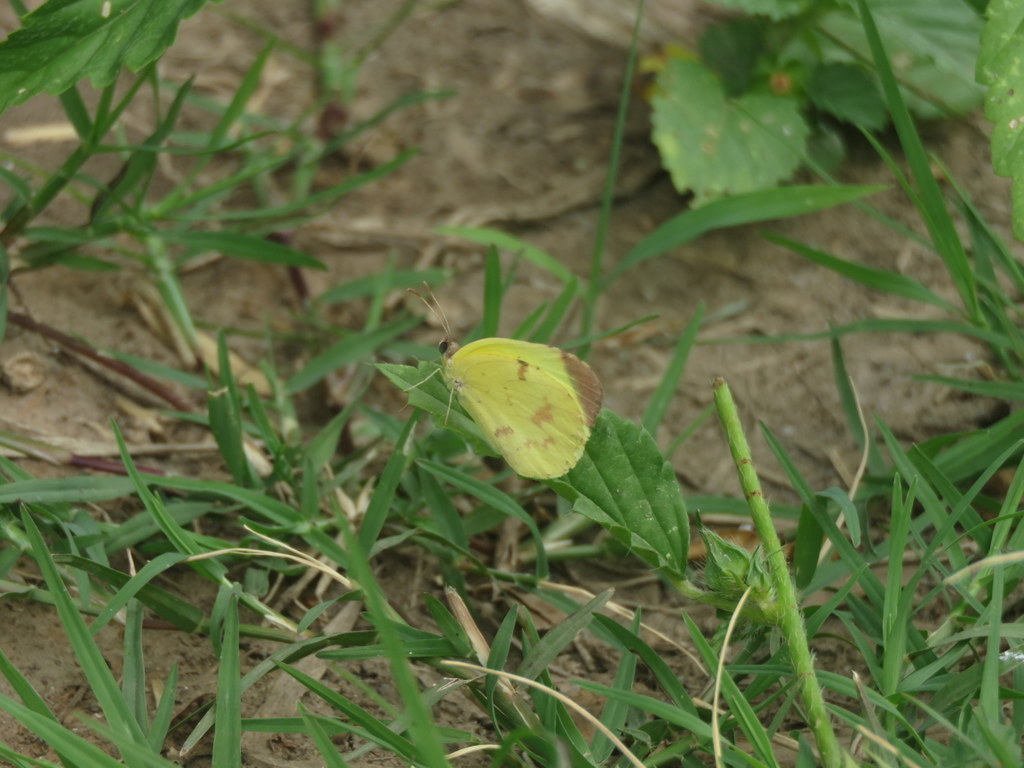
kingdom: Animalia
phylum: Arthropoda
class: Insecta
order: Lepidoptera
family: Pieridae
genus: Teriocolias
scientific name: Teriocolias
